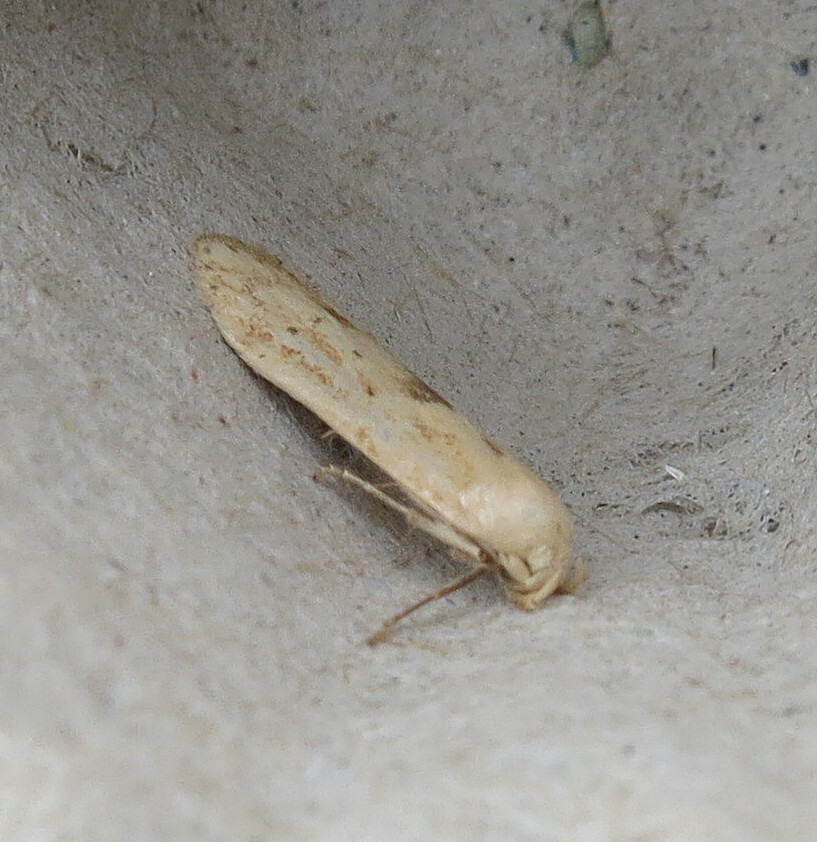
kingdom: Animalia
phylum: Arthropoda
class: Insecta
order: Lepidoptera
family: Blastobasidae
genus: Blastobasis
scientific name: Blastobasis lacticolella
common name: London dowd
